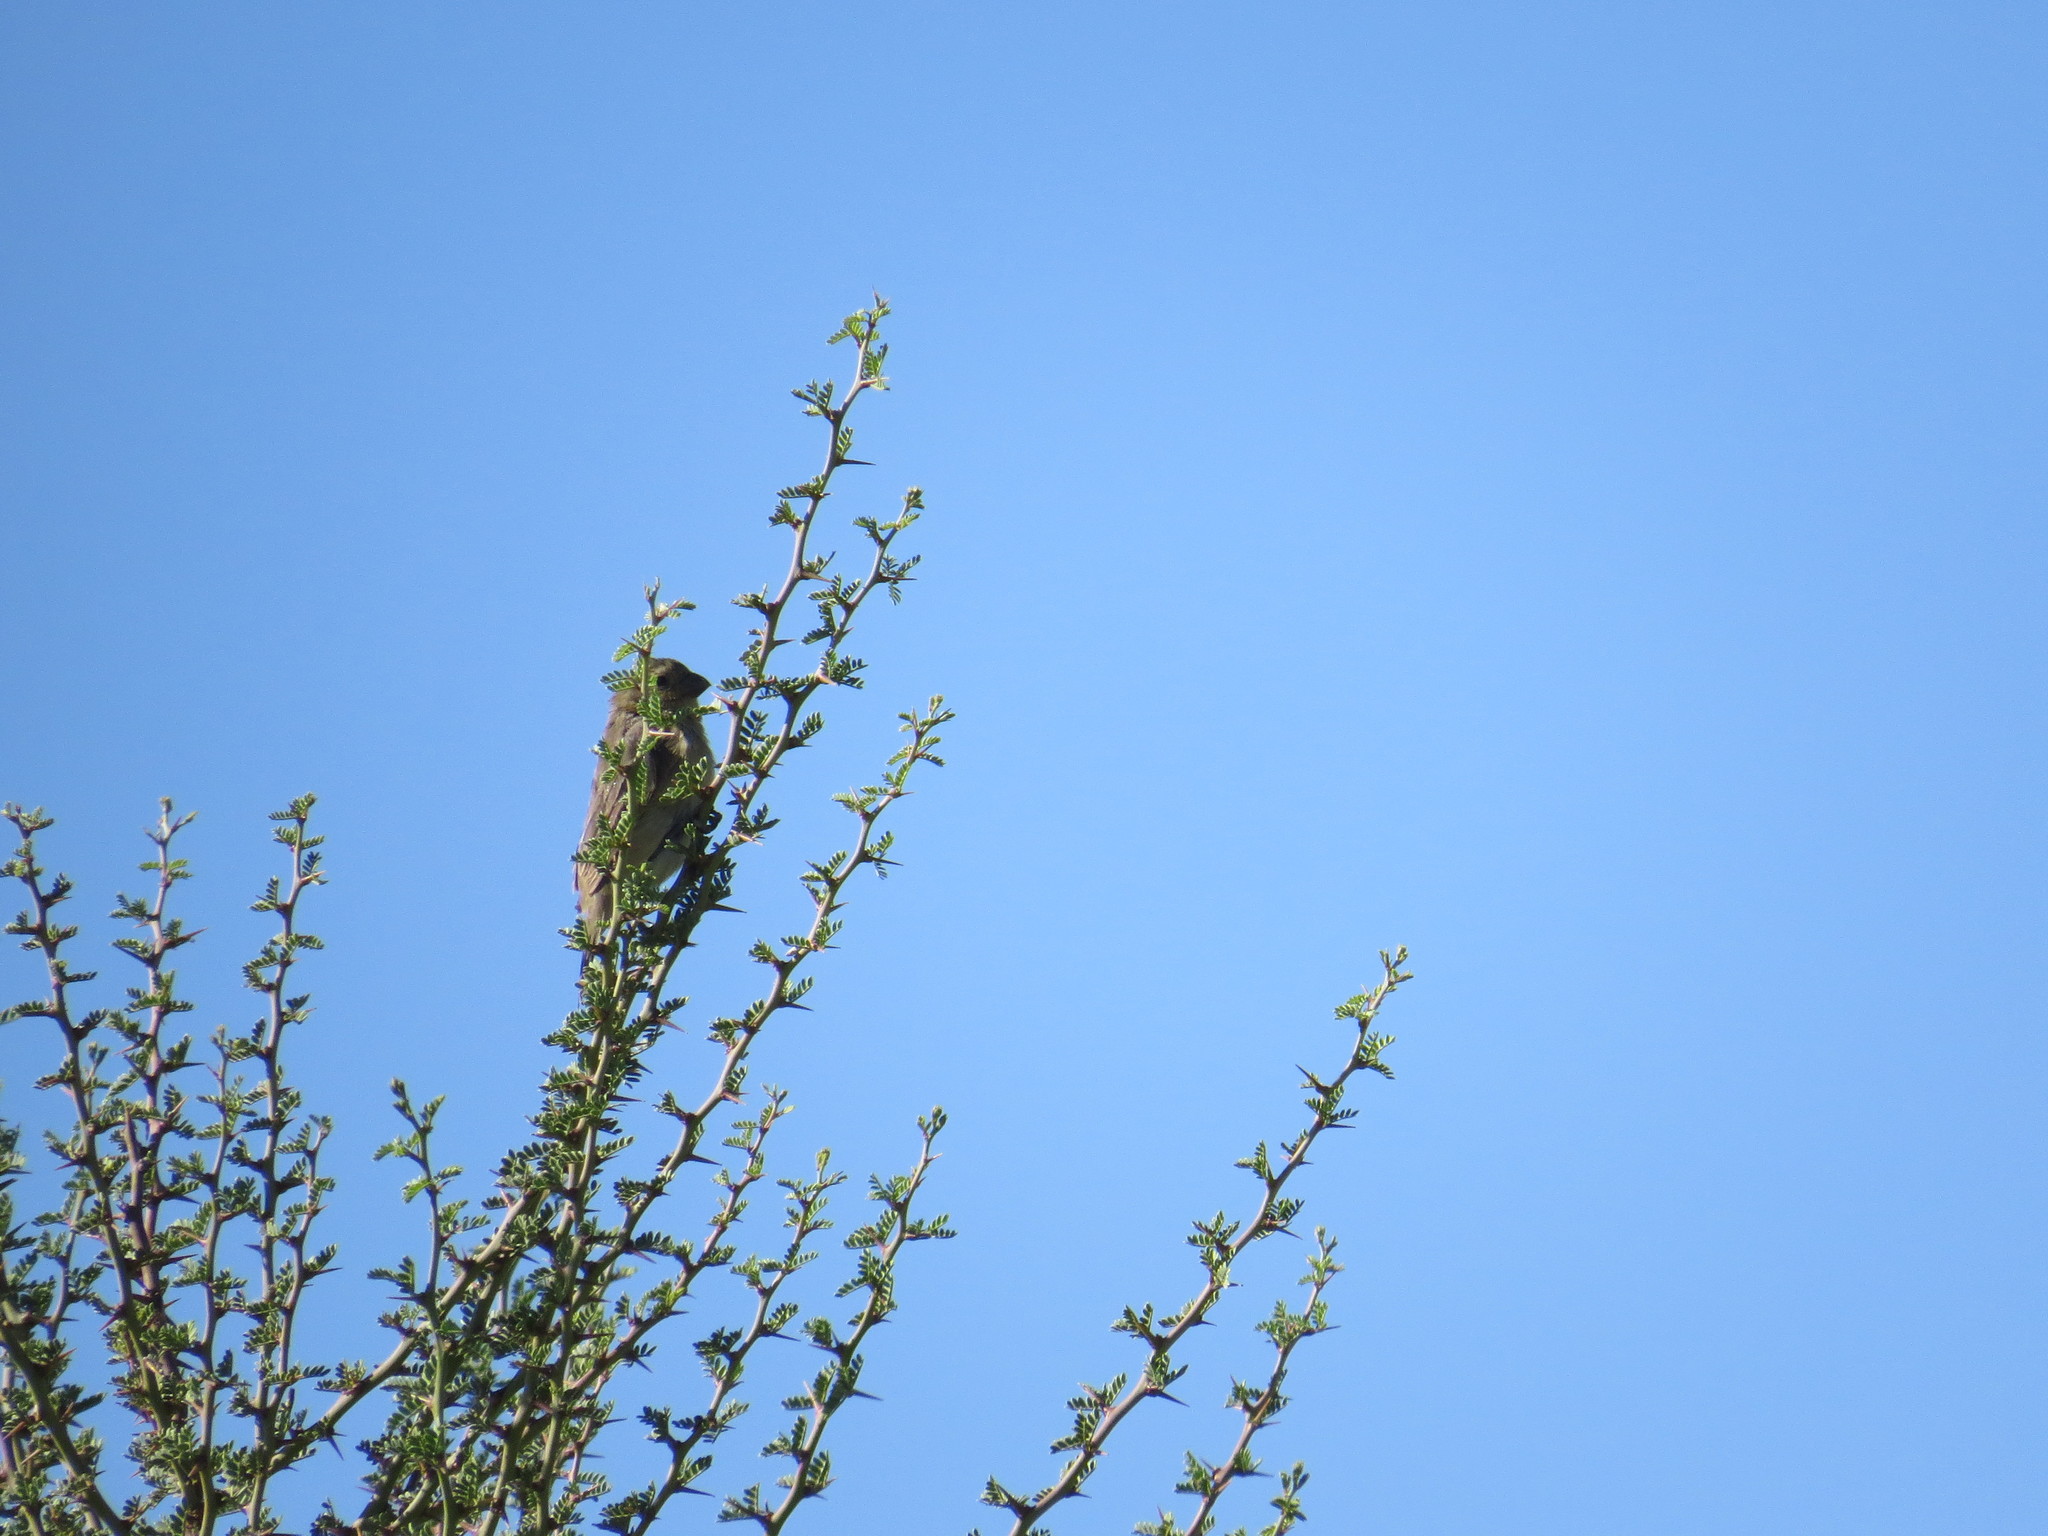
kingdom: Animalia
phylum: Chordata
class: Aves
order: Passeriformes
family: Thraupidae
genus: Sporophila
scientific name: Sporophila caerulescens
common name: Double-collared seedeater
